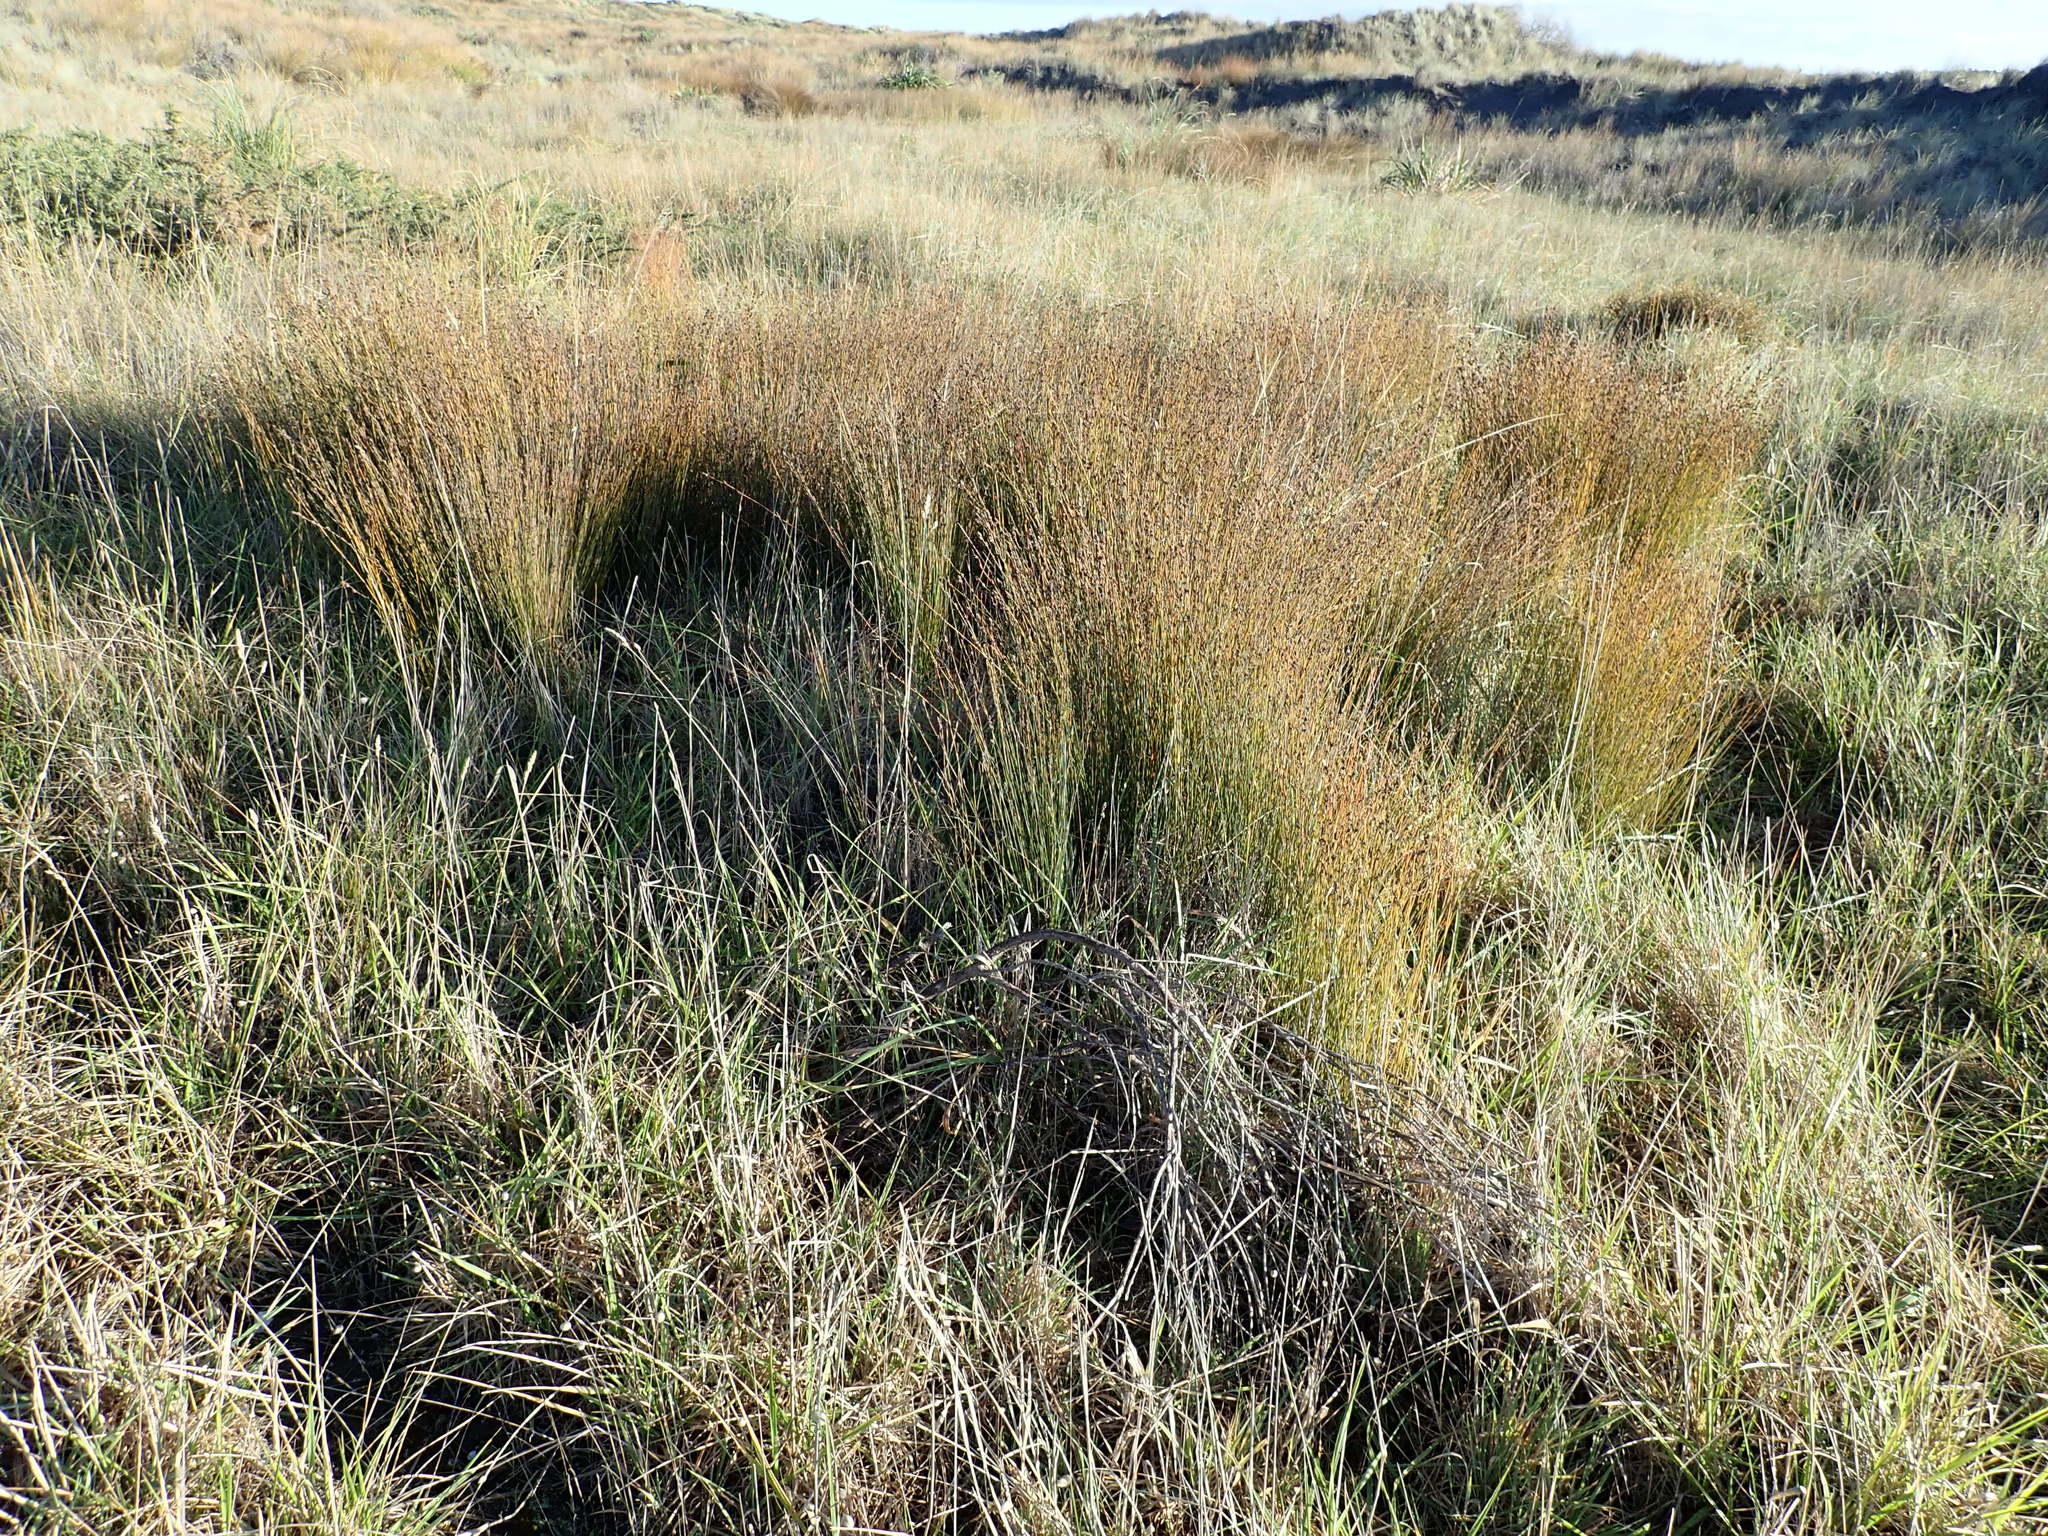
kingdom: Plantae
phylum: Tracheophyta
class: Liliopsida
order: Poales
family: Restionaceae
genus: Apodasmia
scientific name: Apodasmia similis
